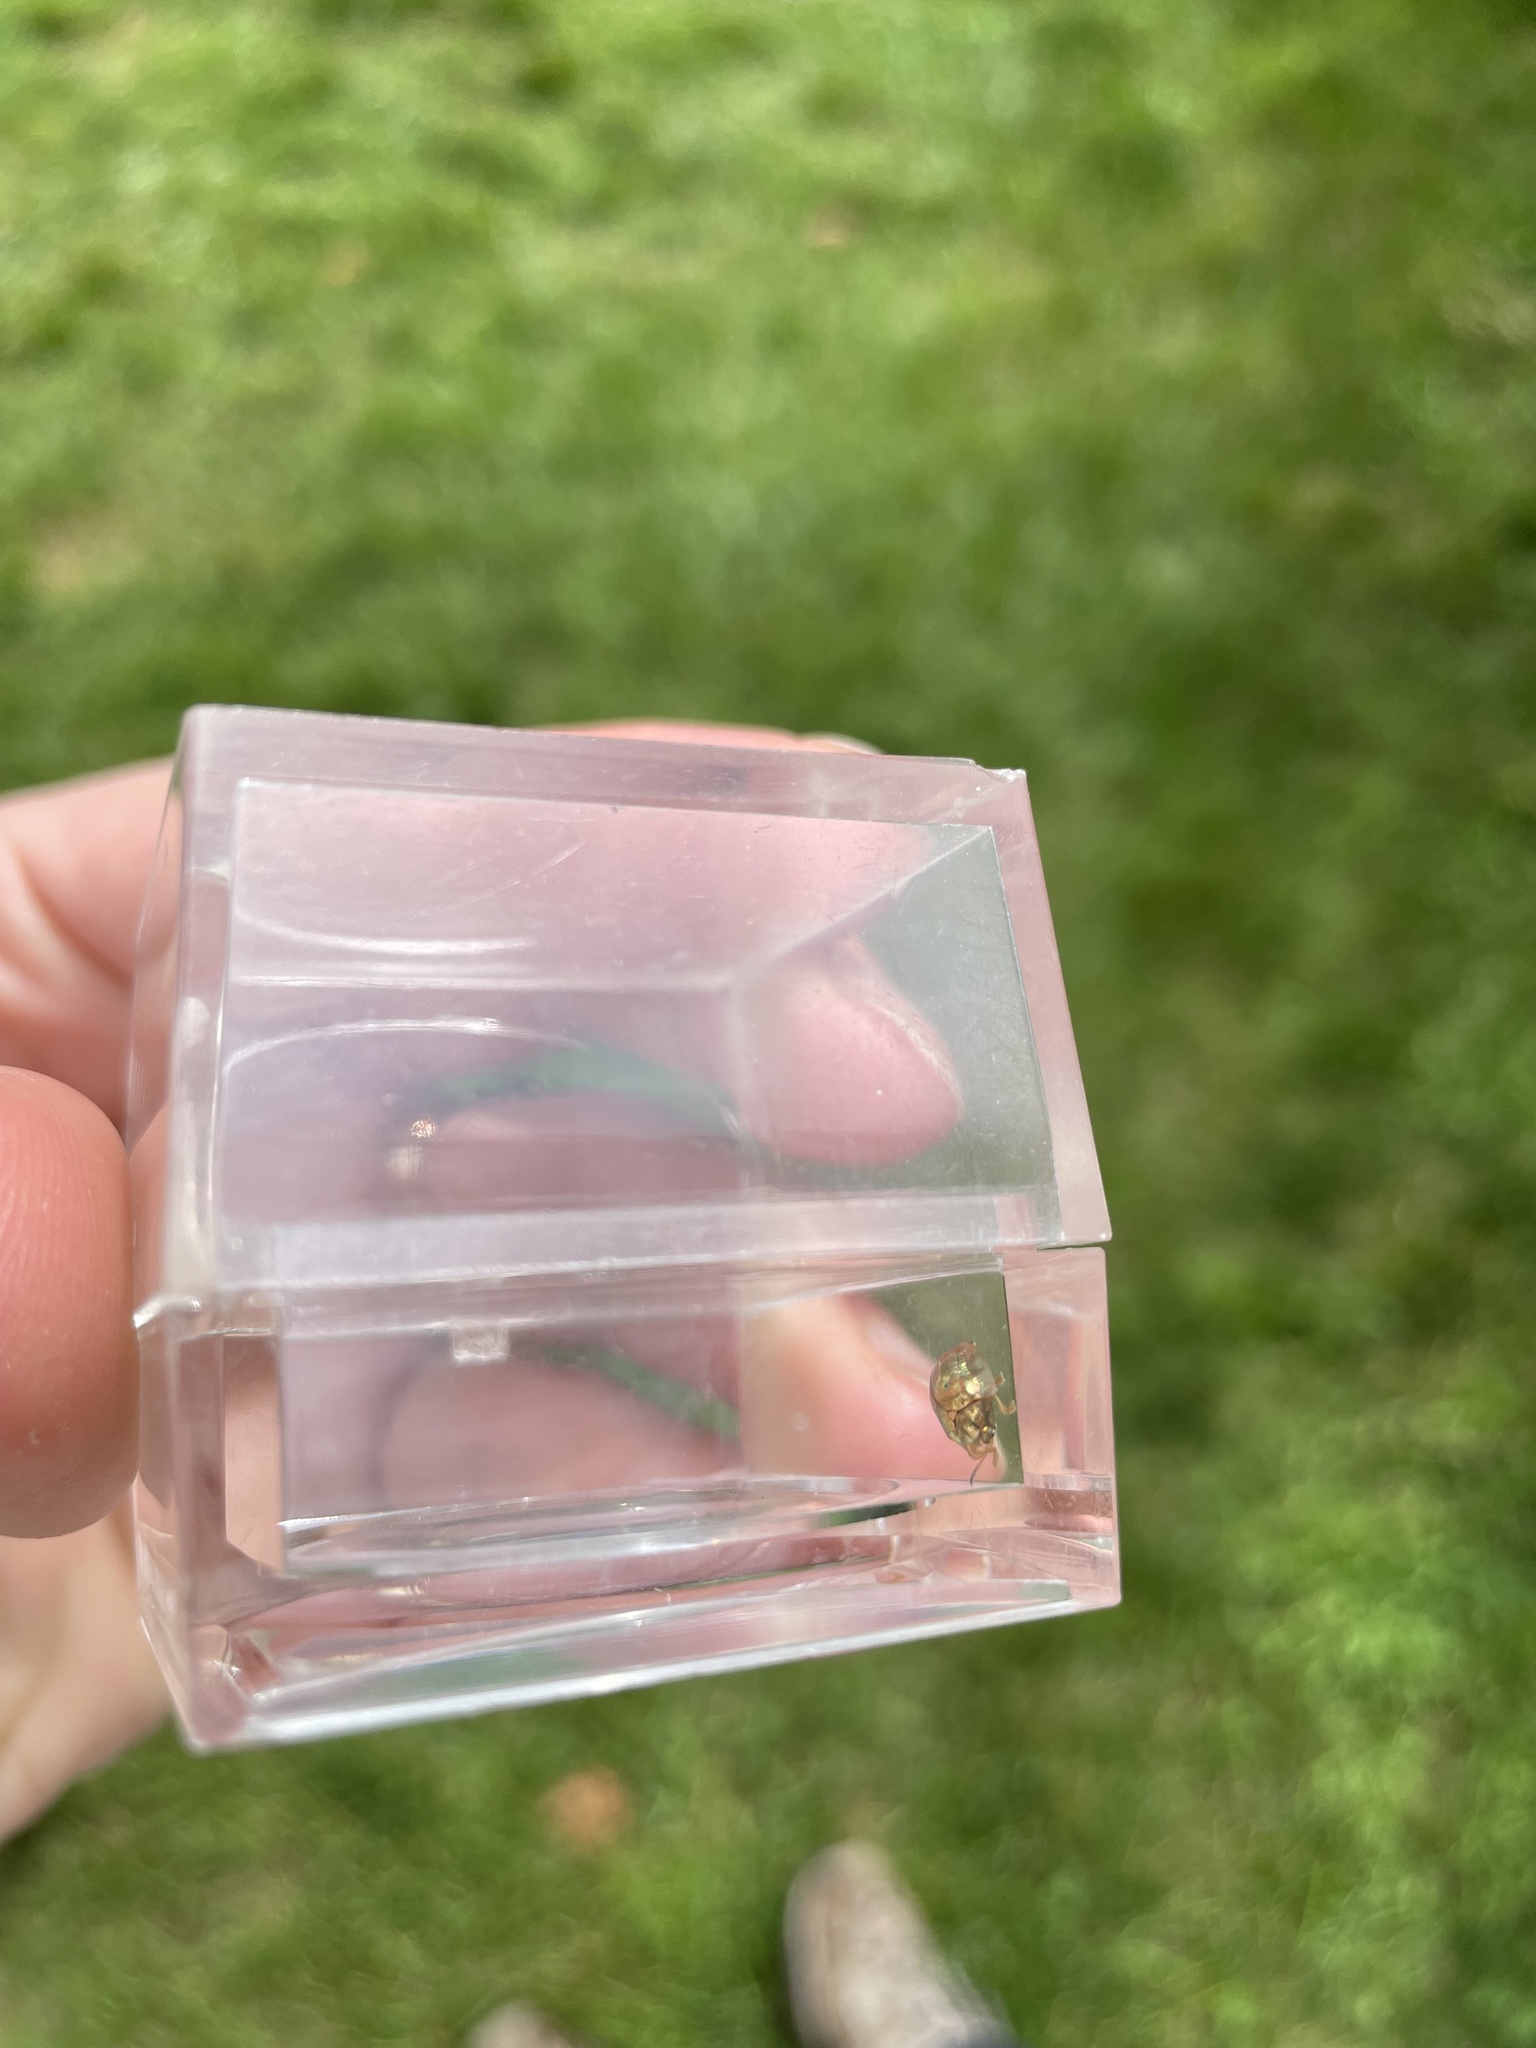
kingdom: Animalia
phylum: Arthropoda
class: Insecta
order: Coleoptera
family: Chrysomelidae
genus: Charidotella
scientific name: Charidotella sexpunctata
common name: Golden tortoise beetle
